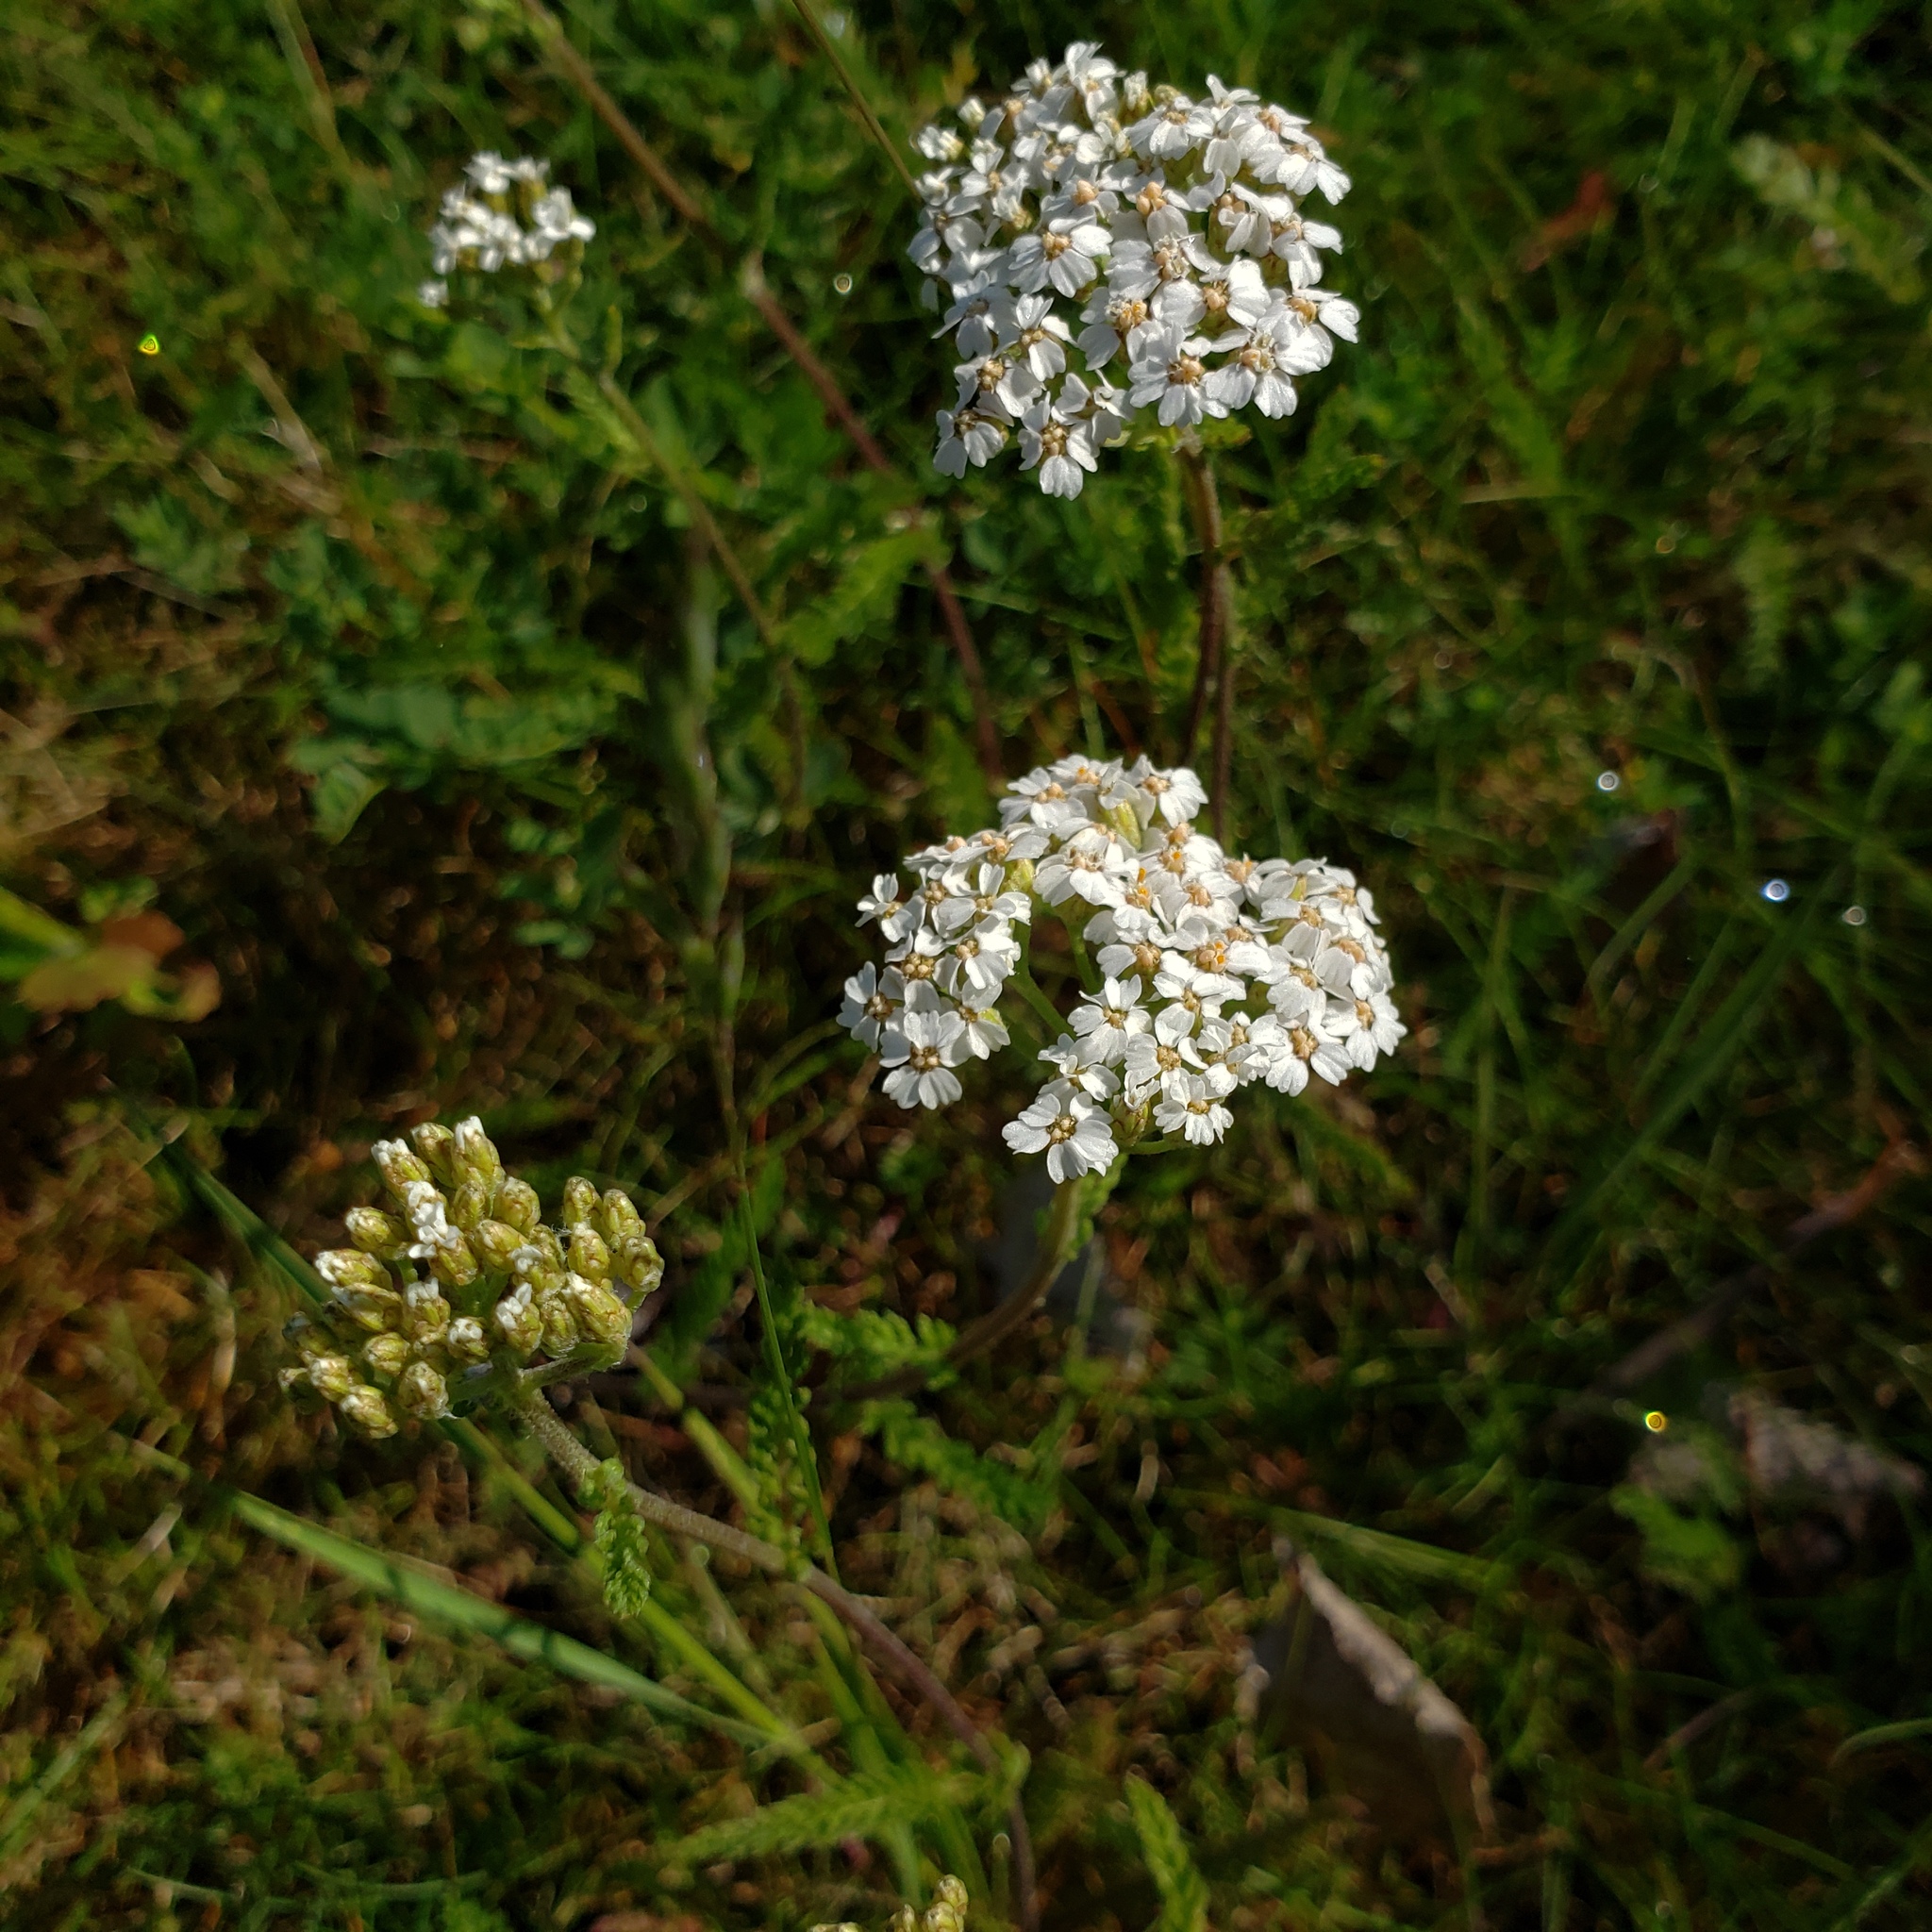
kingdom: Plantae
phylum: Tracheophyta
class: Magnoliopsida
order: Asterales
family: Asteraceae
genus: Achillea
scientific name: Achillea millefolium
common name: Yarrow
